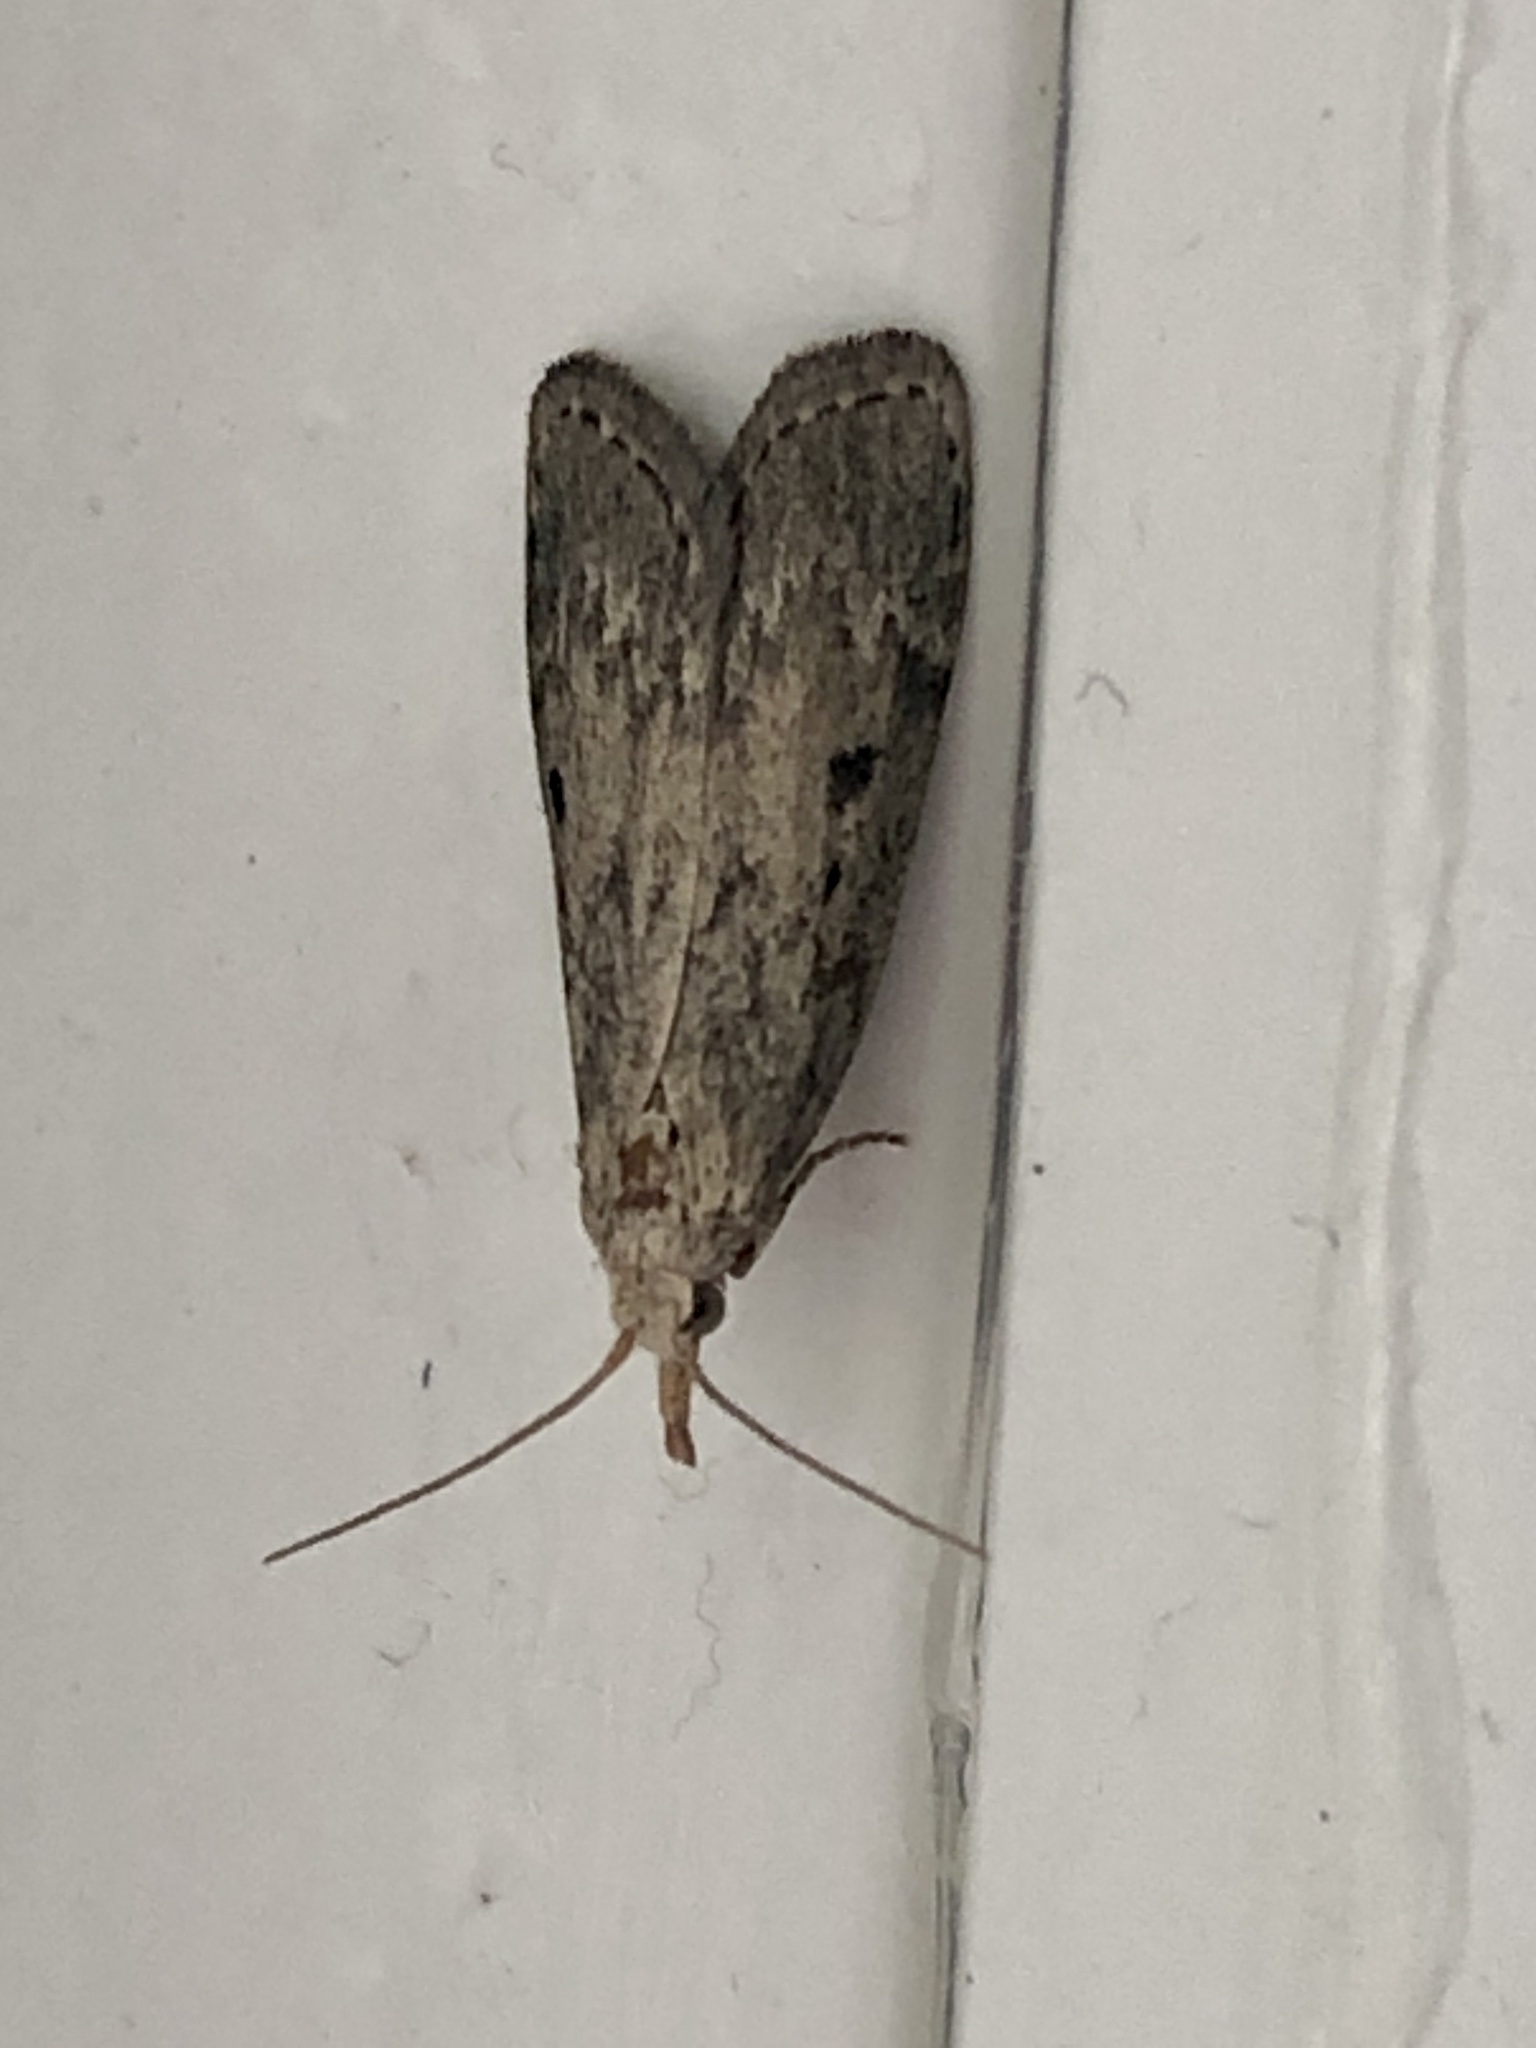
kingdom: Animalia
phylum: Arthropoda
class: Insecta
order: Lepidoptera
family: Pyralidae
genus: Aphomia
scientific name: Aphomia sociella
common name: Bee moth
